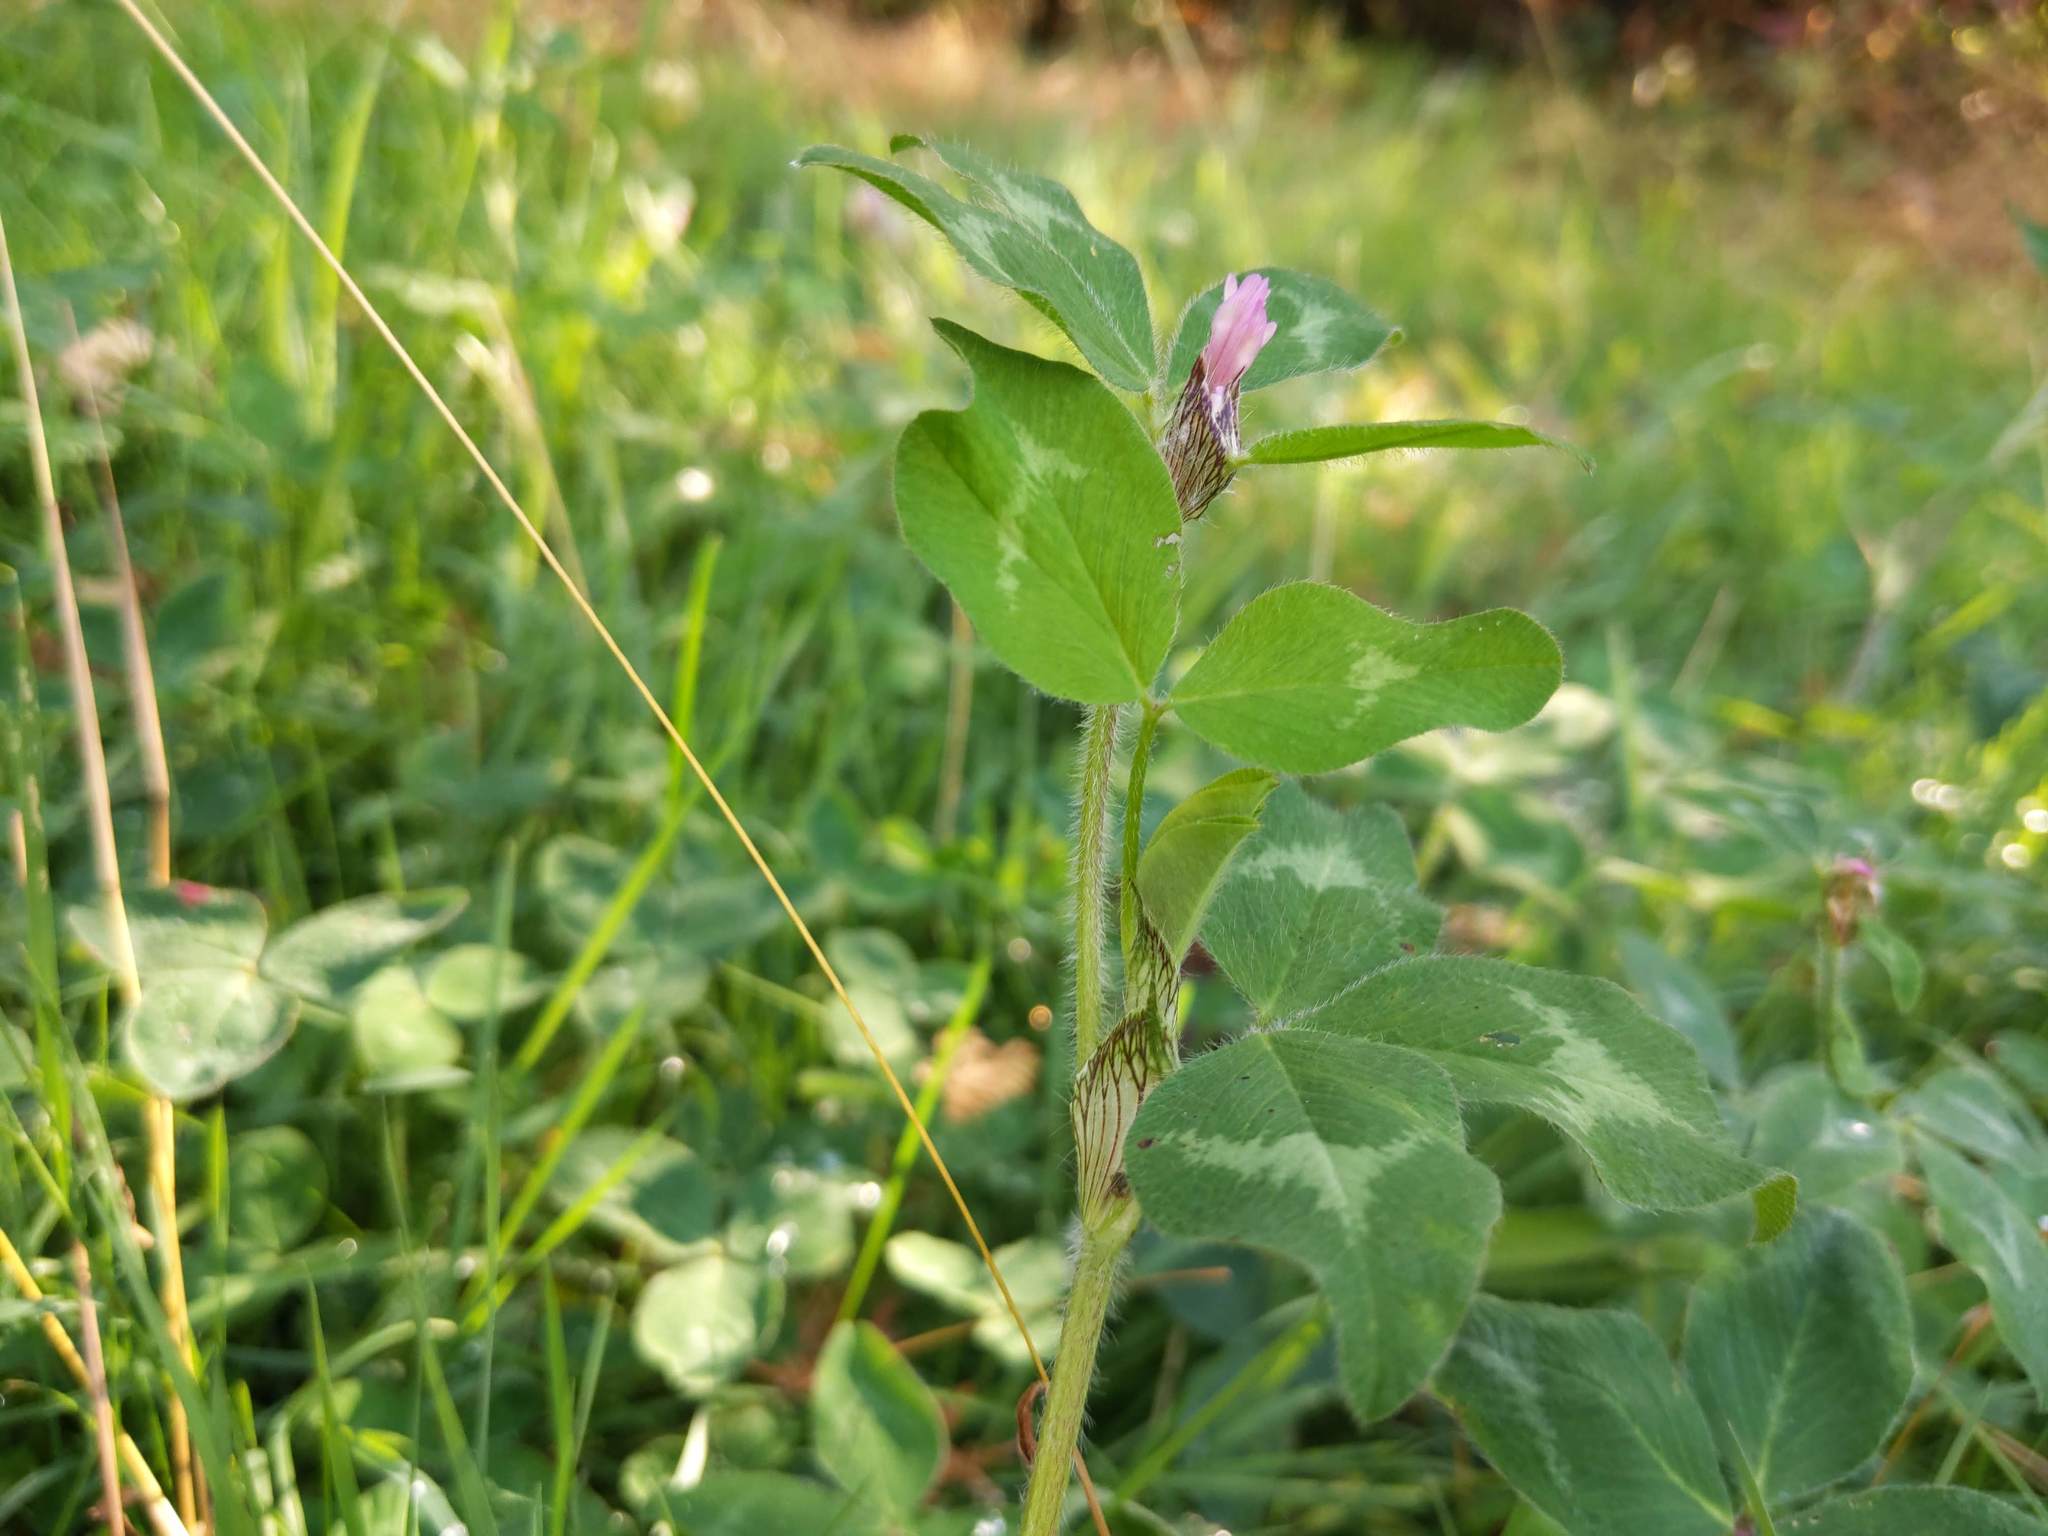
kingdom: Plantae
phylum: Tracheophyta
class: Magnoliopsida
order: Fabales
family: Fabaceae
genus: Trifolium
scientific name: Trifolium pratense
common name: Red clover
